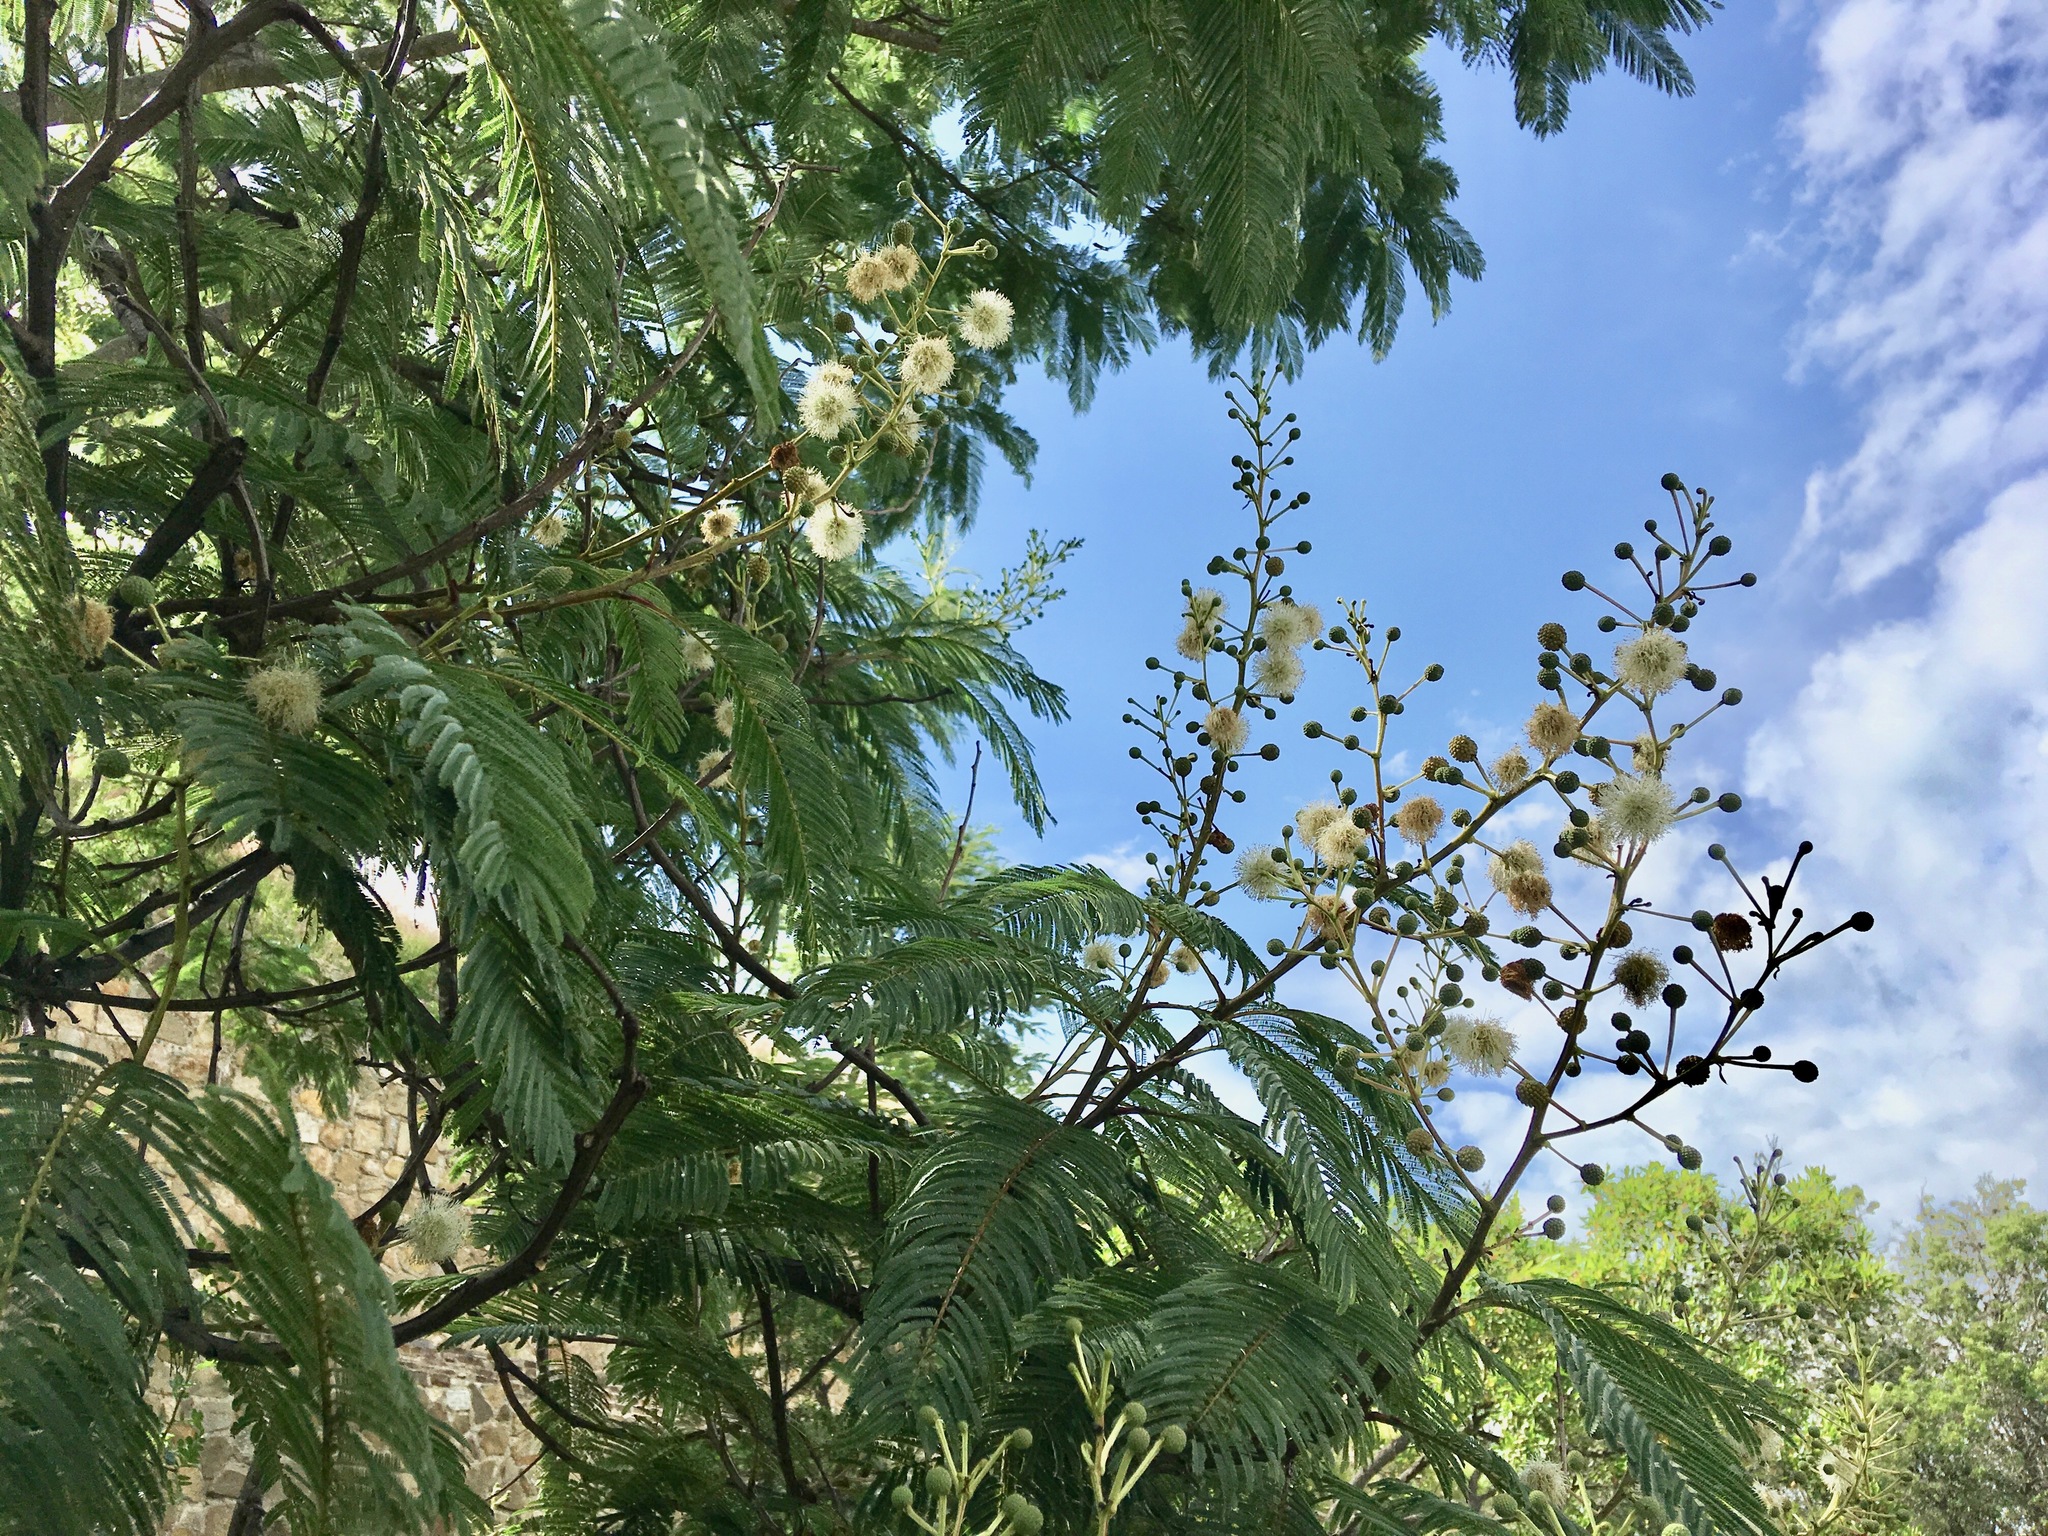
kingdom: Plantae
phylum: Tracheophyta
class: Magnoliopsida
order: Fabales
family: Fabaceae
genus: Leucaena
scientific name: Leucaena leucocephala
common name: White leadtree
